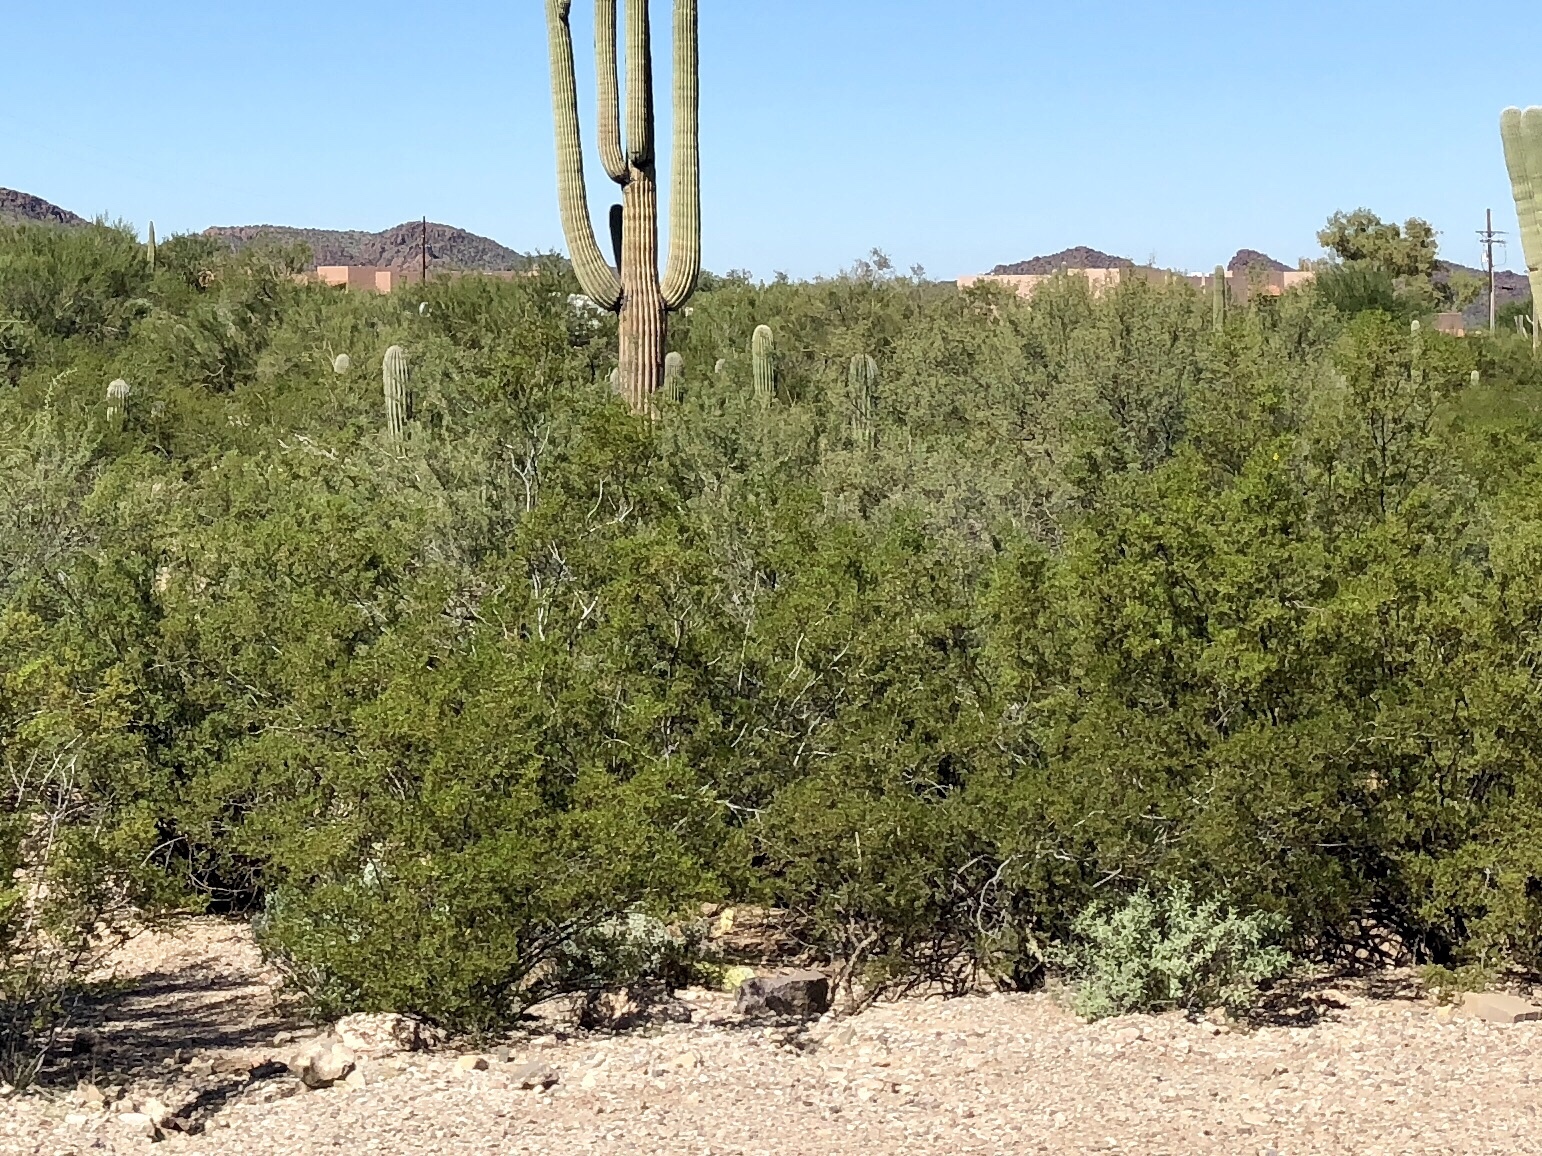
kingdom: Plantae
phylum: Tracheophyta
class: Magnoliopsida
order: Zygophyllales
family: Zygophyllaceae
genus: Larrea
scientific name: Larrea tridentata
